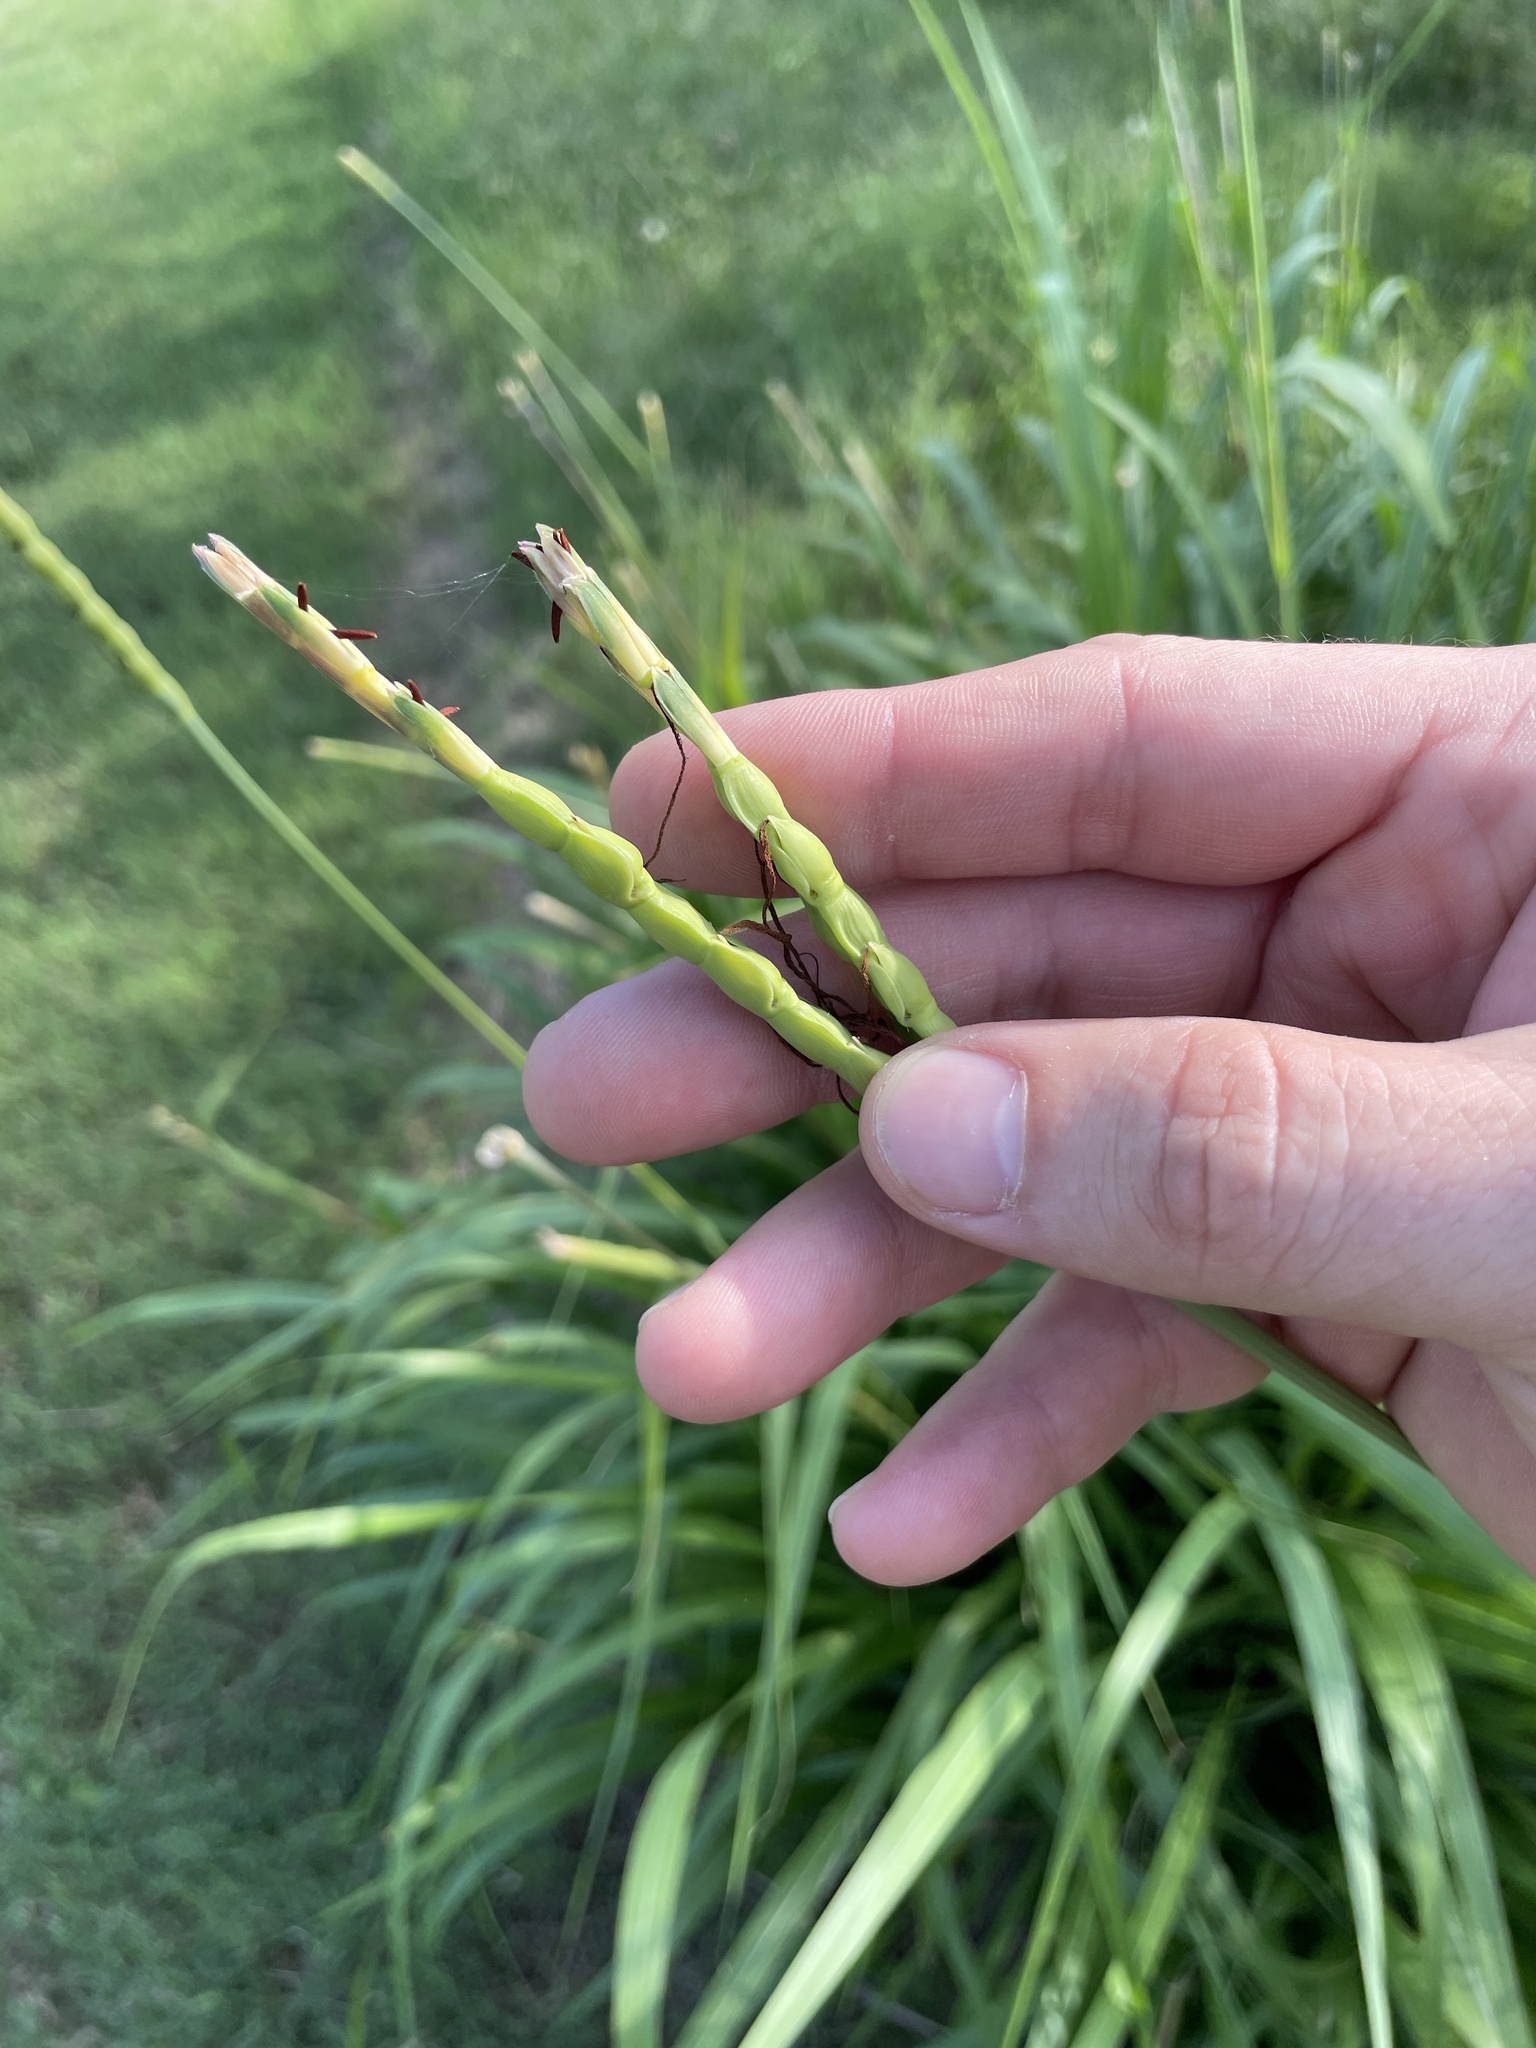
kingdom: Plantae
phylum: Tracheophyta
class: Liliopsida
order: Poales
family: Poaceae
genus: Tripsacum
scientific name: Tripsacum dactyloides
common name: Buffalo-grass
